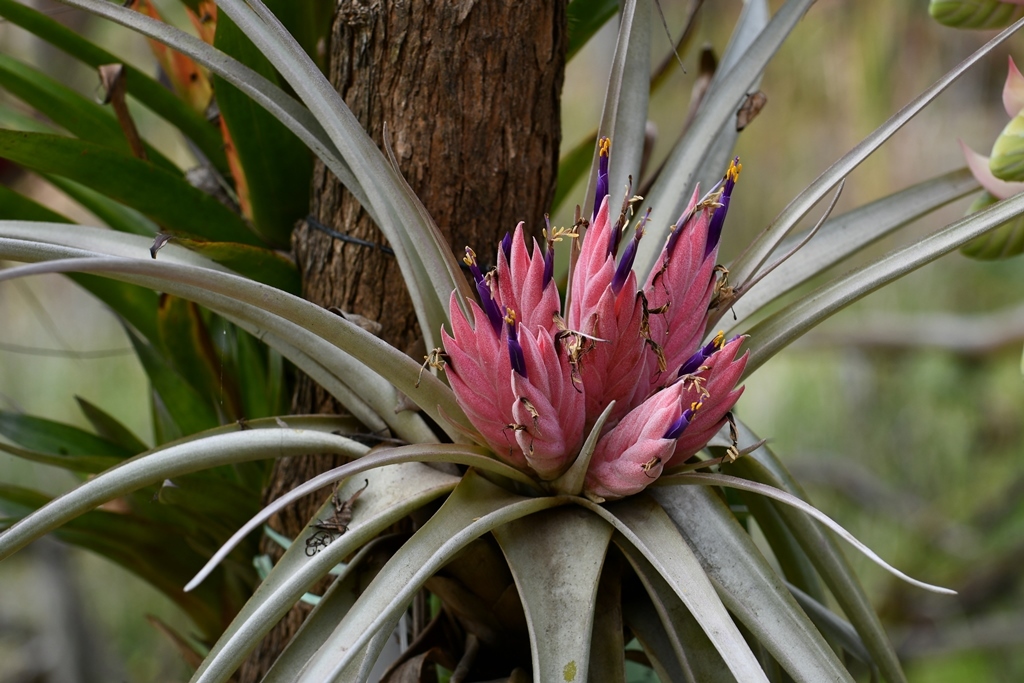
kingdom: Plantae
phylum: Tracheophyta
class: Liliopsida
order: Poales
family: Bromeliaceae
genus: Tillandsia
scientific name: Tillandsia carlsoniae
